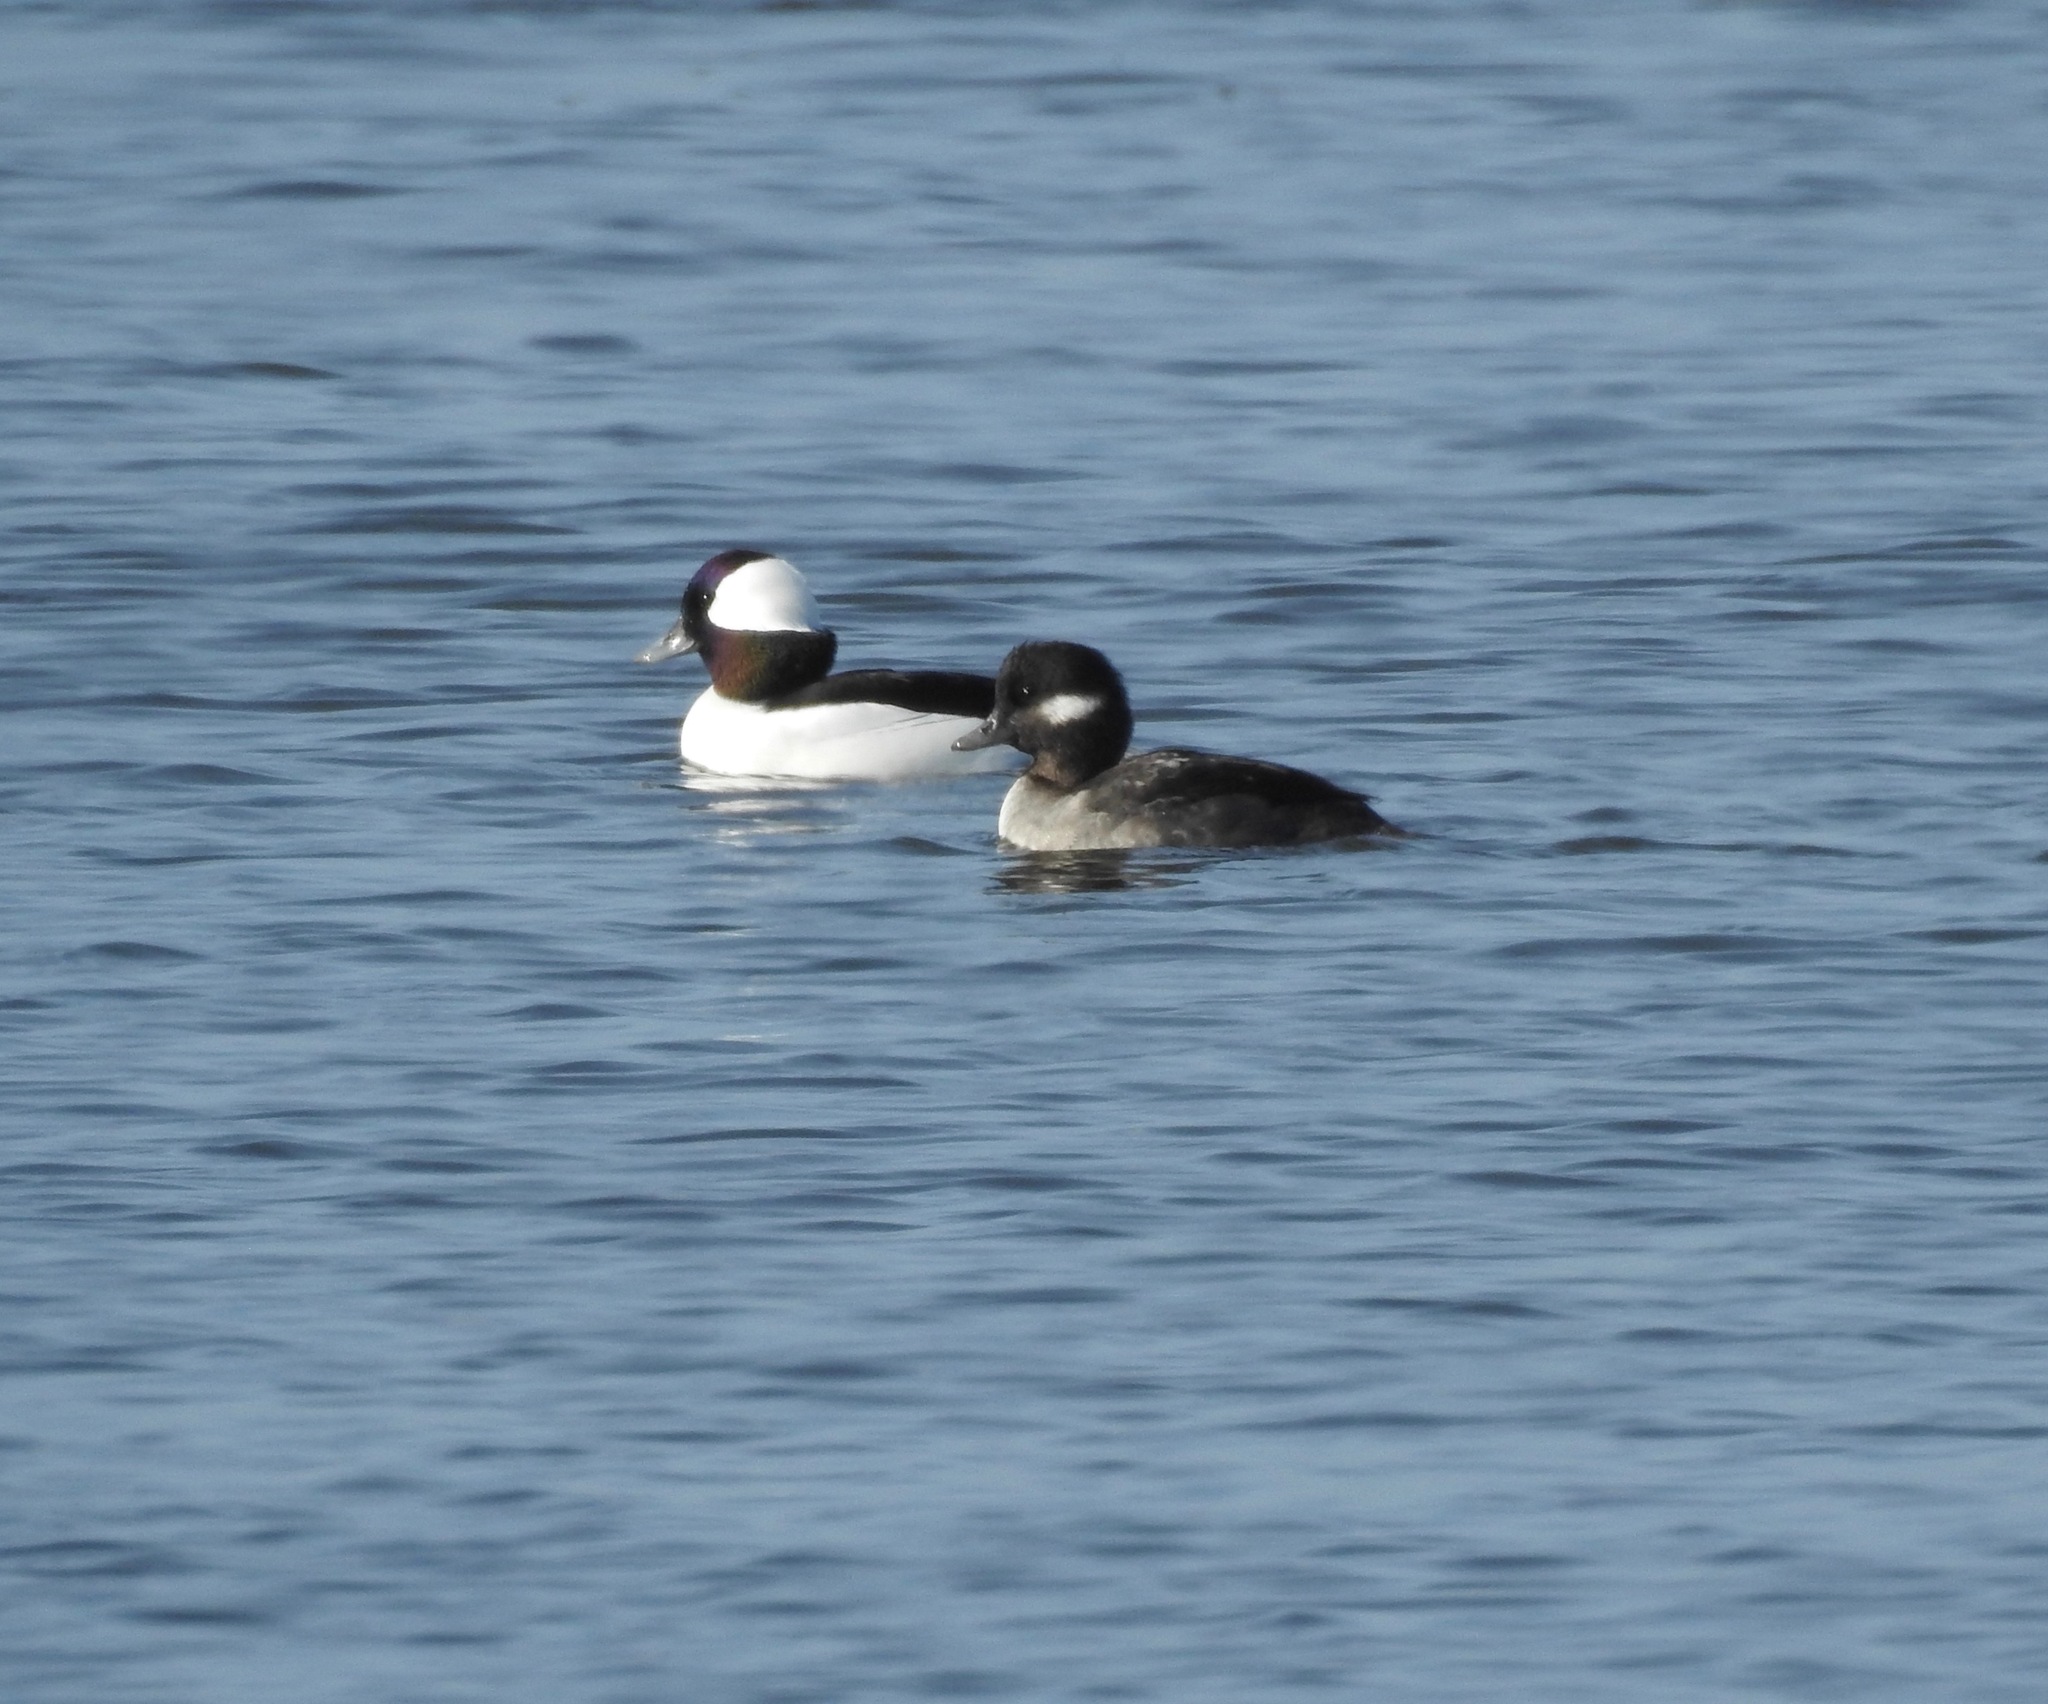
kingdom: Animalia
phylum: Chordata
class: Aves
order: Anseriformes
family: Anatidae
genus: Bucephala
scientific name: Bucephala albeola
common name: Bufflehead
